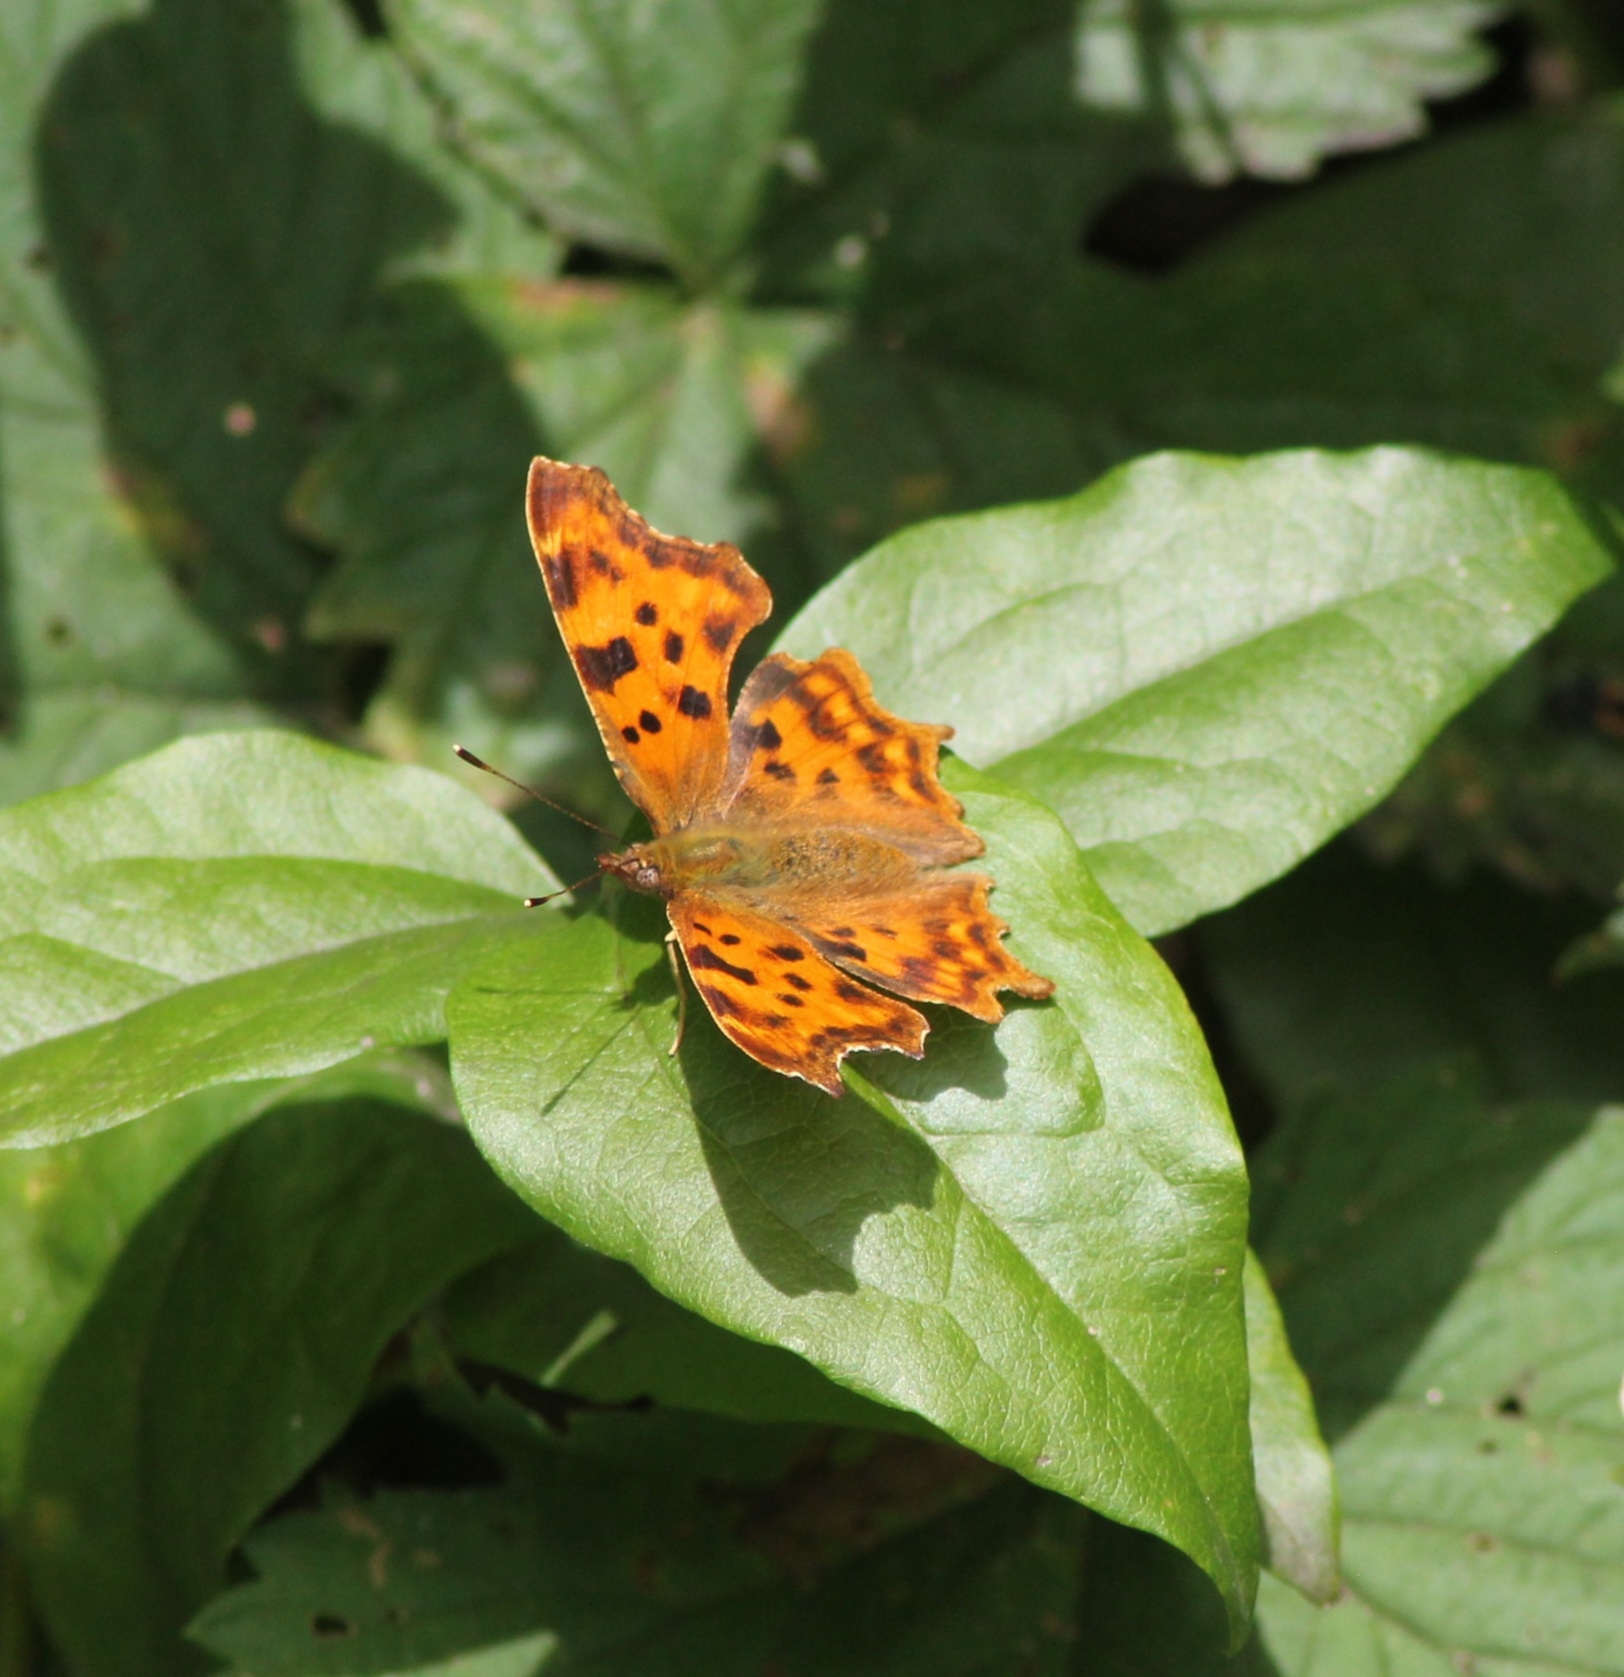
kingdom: Animalia
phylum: Arthropoda
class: Insecta
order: Lepidoptera
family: Nymphalidae
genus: Polygonia
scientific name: Polygonia c-album
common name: Comma
